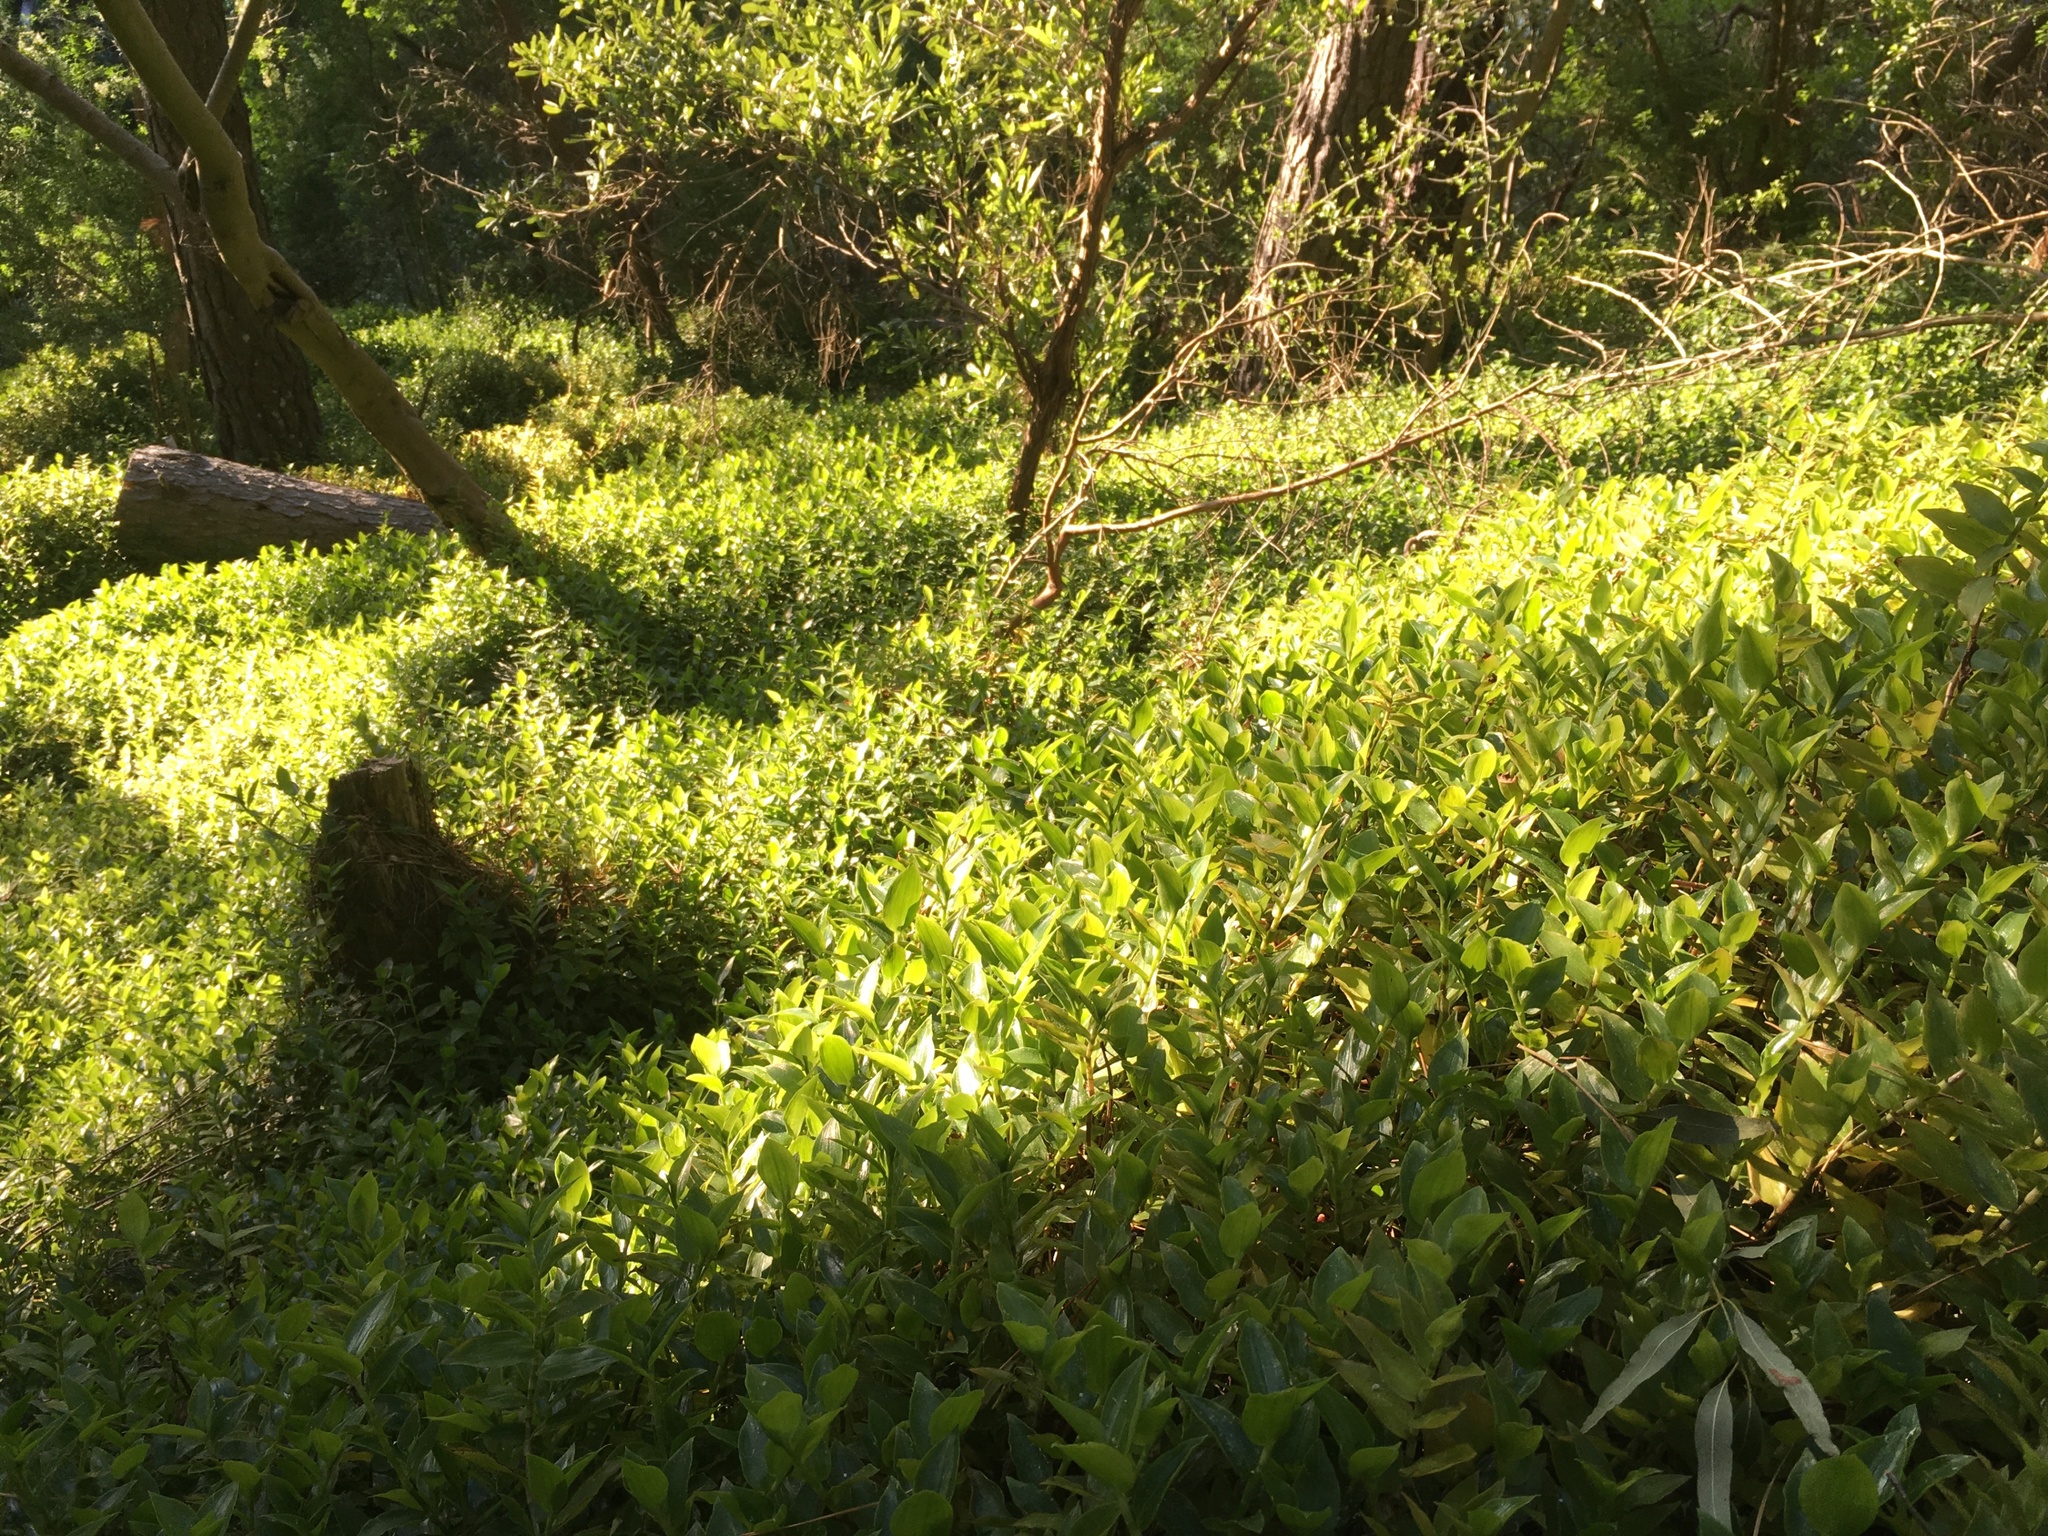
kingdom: Plantae
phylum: Tracheophyta
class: Liliopsida
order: Commelinales
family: Commelinaceae
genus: Tradescantia
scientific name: Tradescantia fluminensis
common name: Wandering-jew
